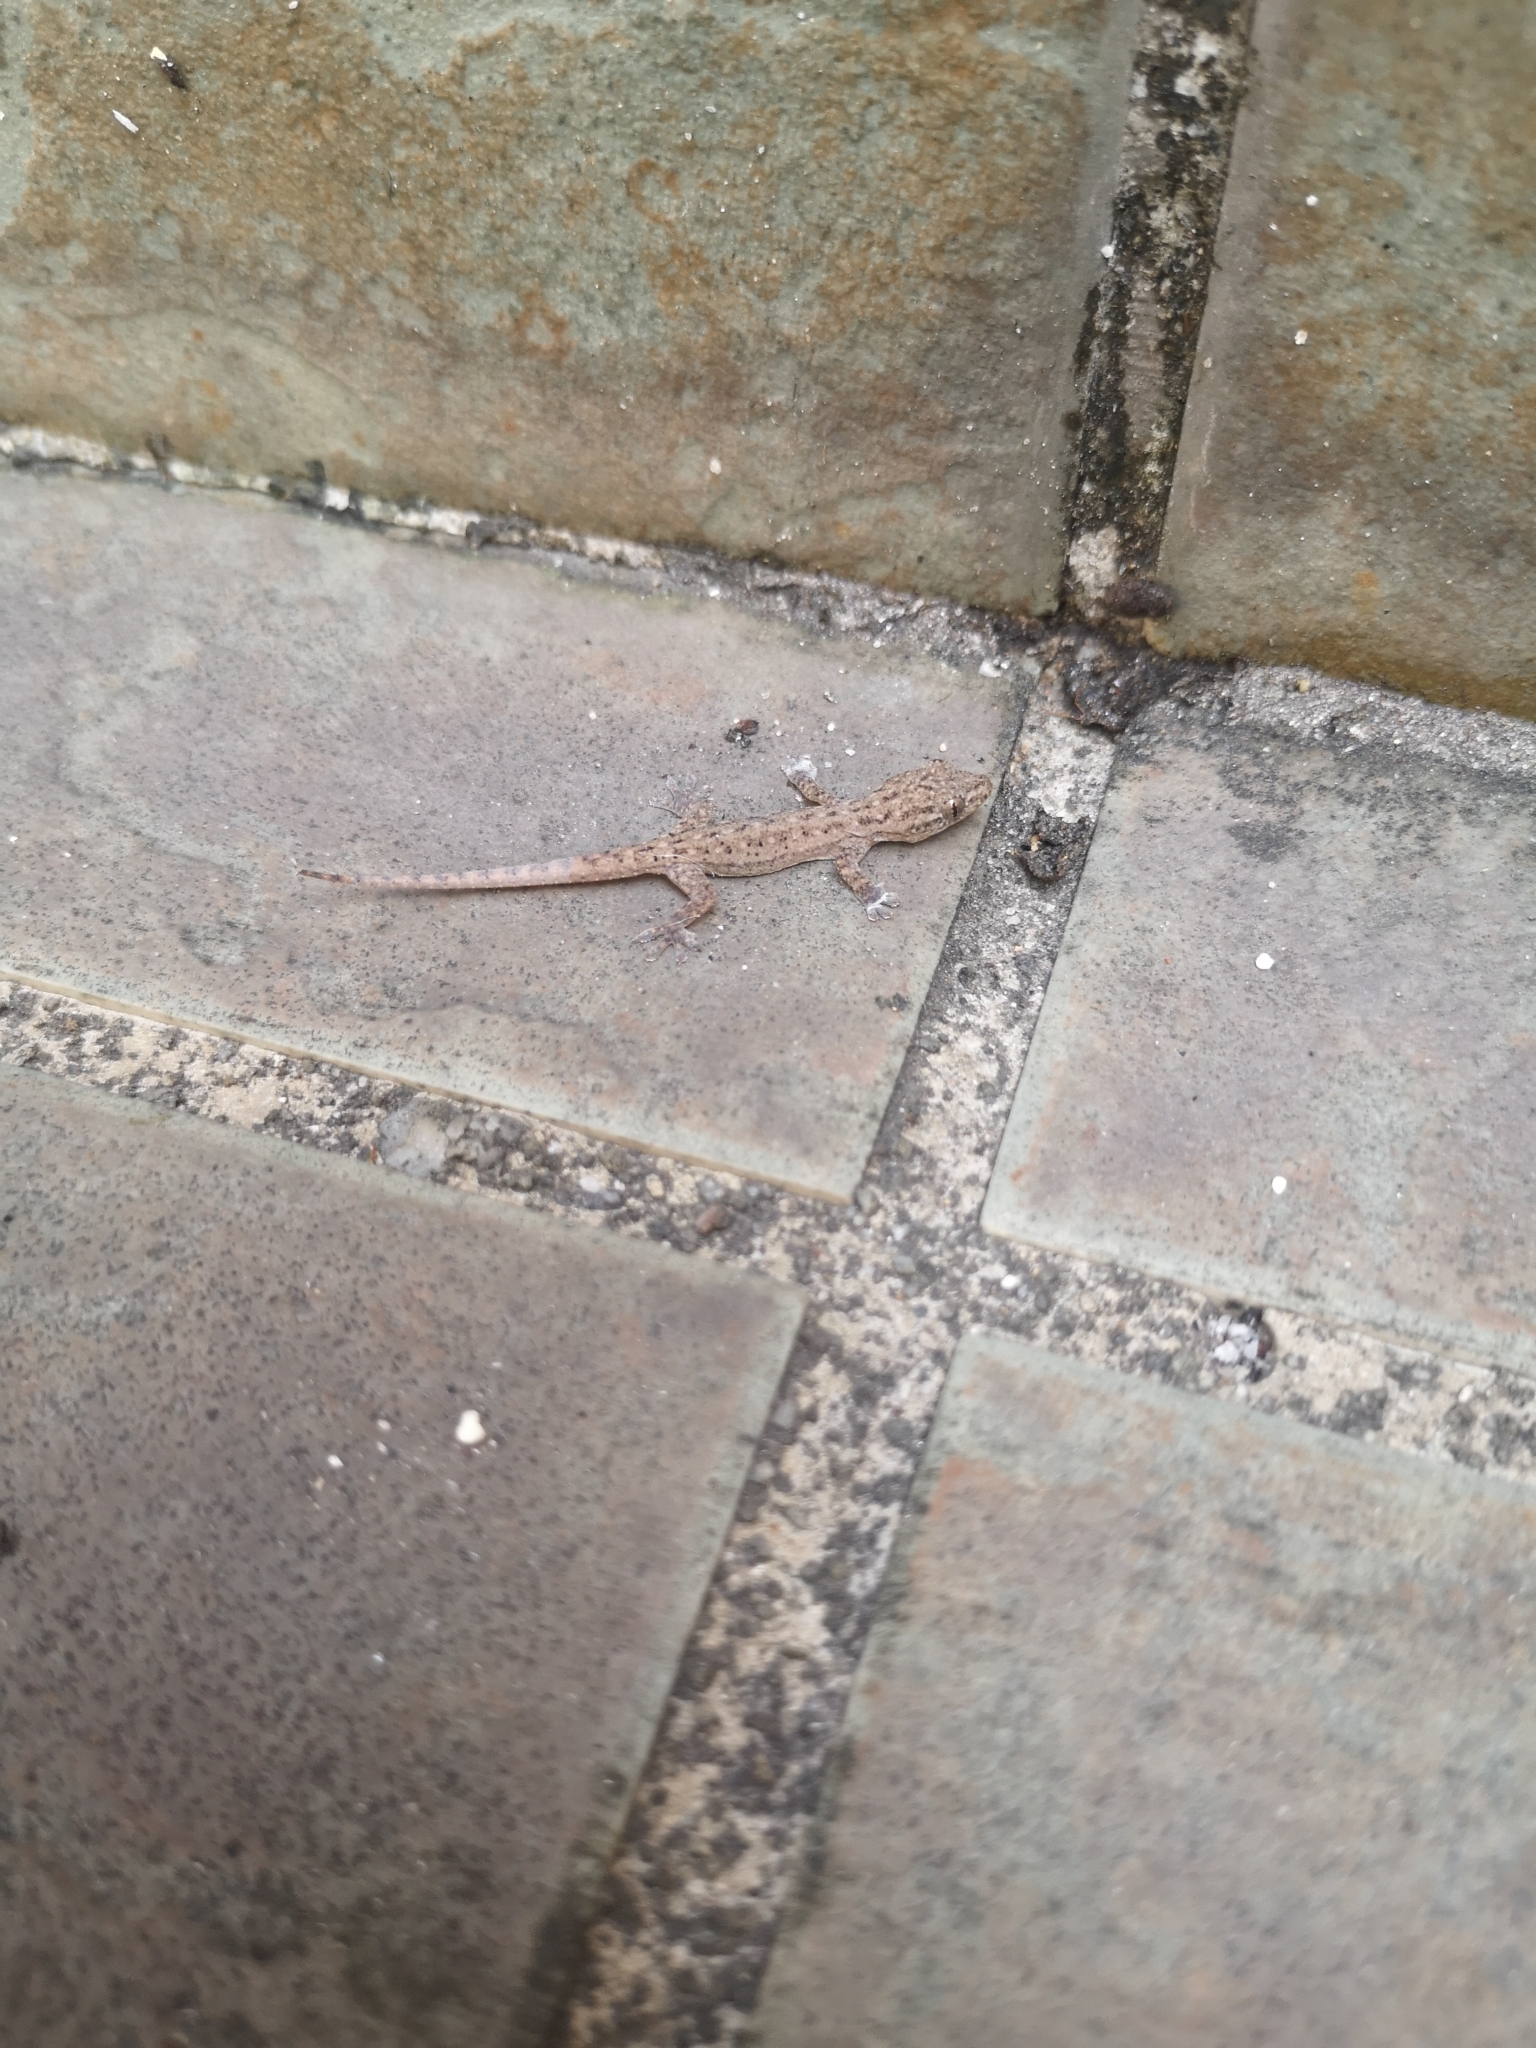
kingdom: Animalia
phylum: Chordata
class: Squamata
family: Gekkonidae
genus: Hemidactylus
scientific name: Hemidactylus frenatus
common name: Common house gecko
